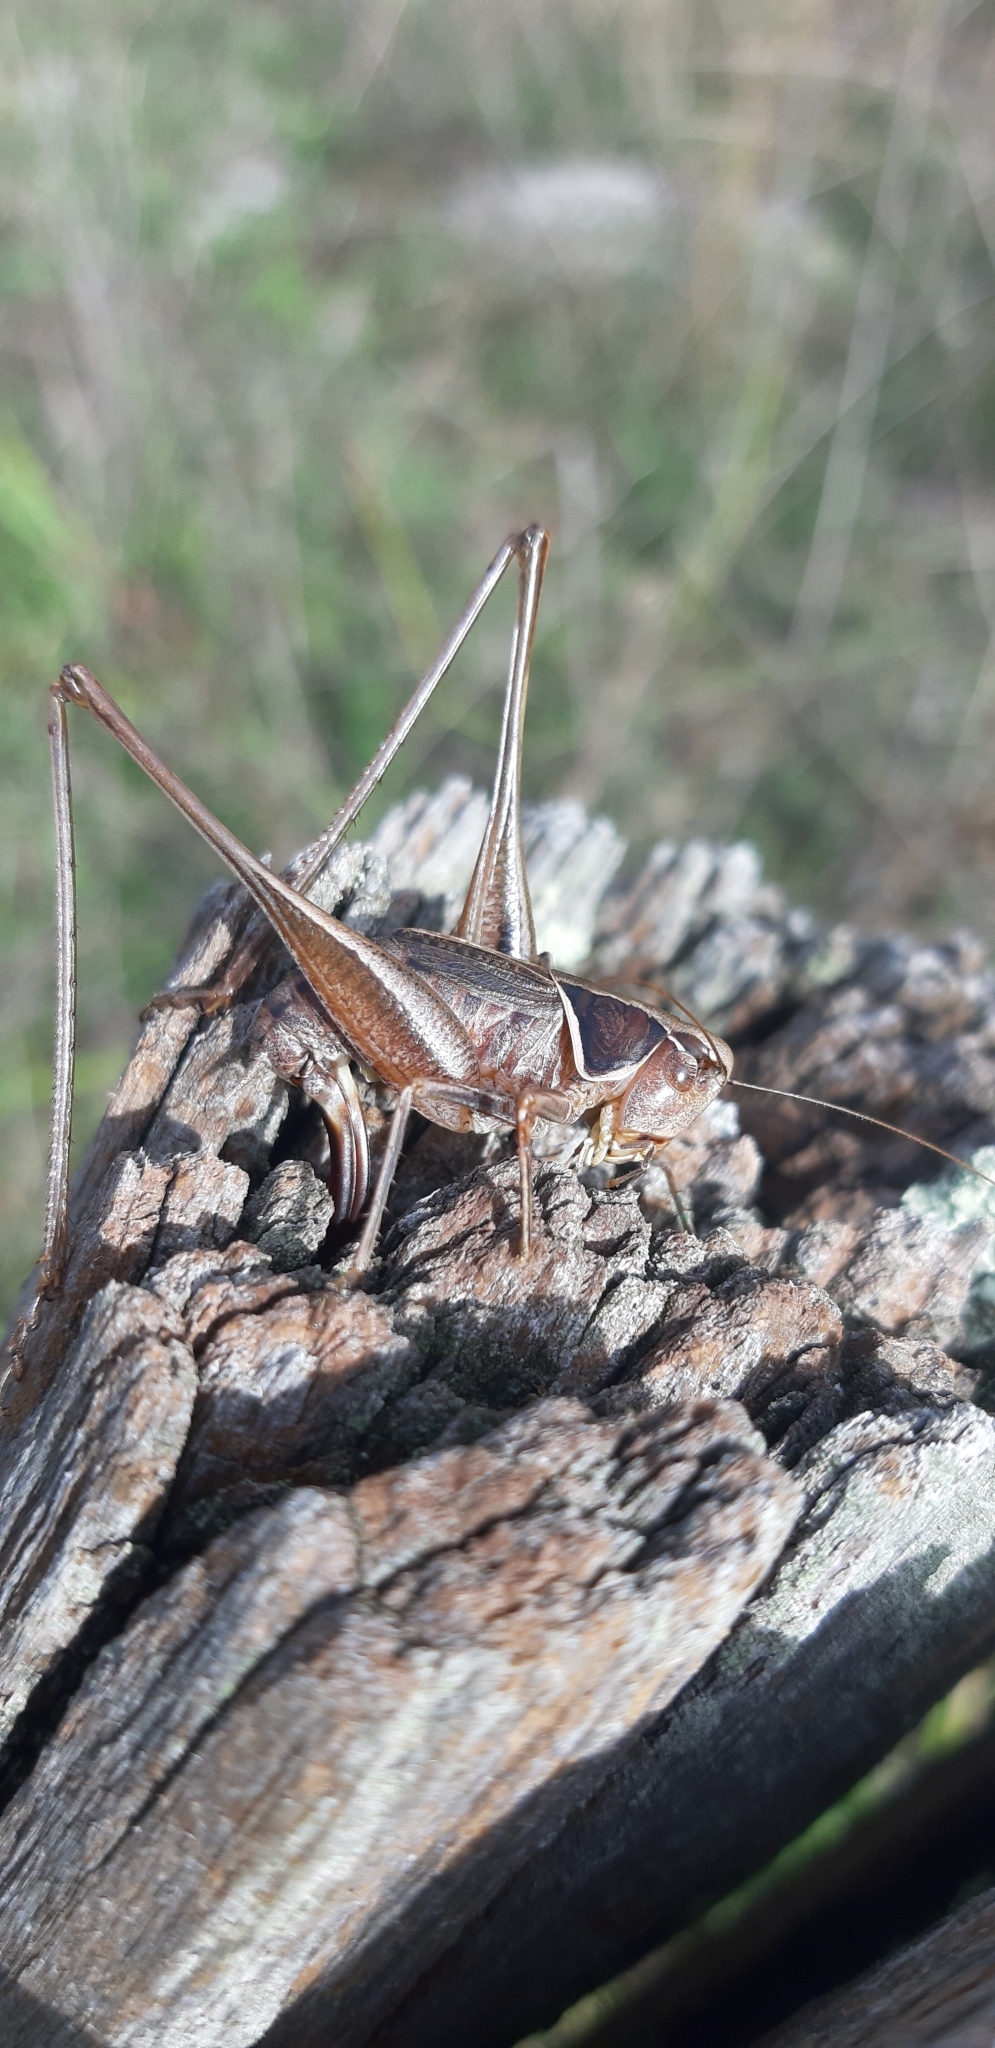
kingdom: Animalia
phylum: Arthropoda
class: Insecta
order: Orthoptera
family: Tettigoniidae
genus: Sepiana
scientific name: Sepiana sepium
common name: Sepia bush-cricket
